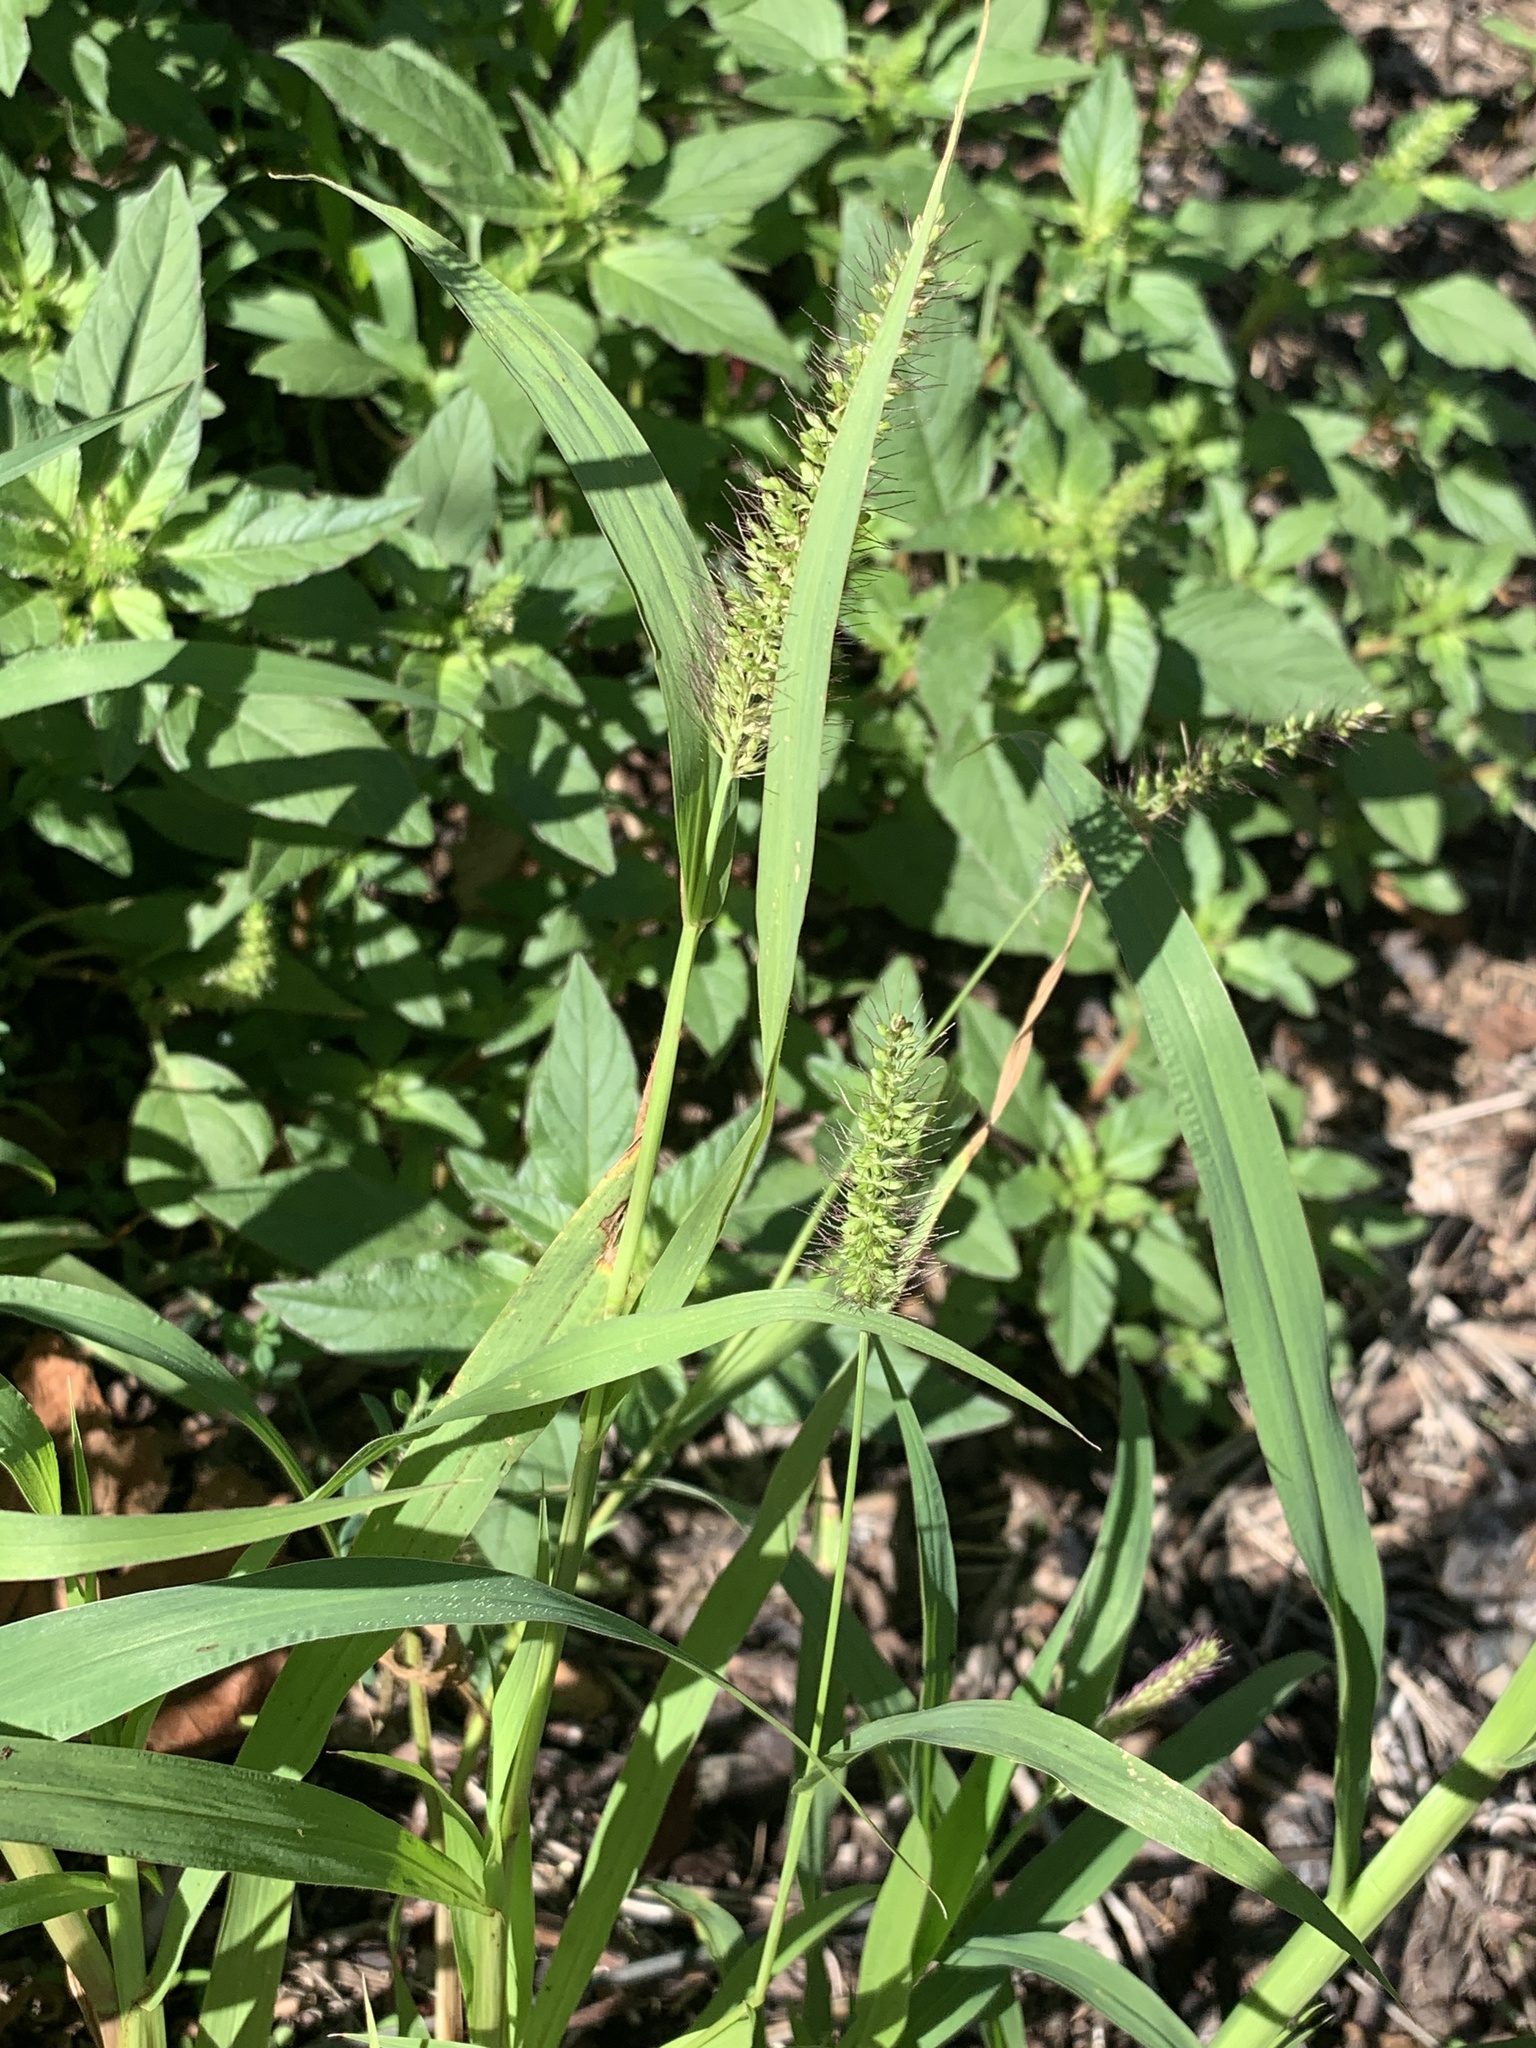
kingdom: Plantae
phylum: Tracheophyta
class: Liliopsida
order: Poales
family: Poaceae
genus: Setaria
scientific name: Setaria verticillata
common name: Hooked bristlegrass
